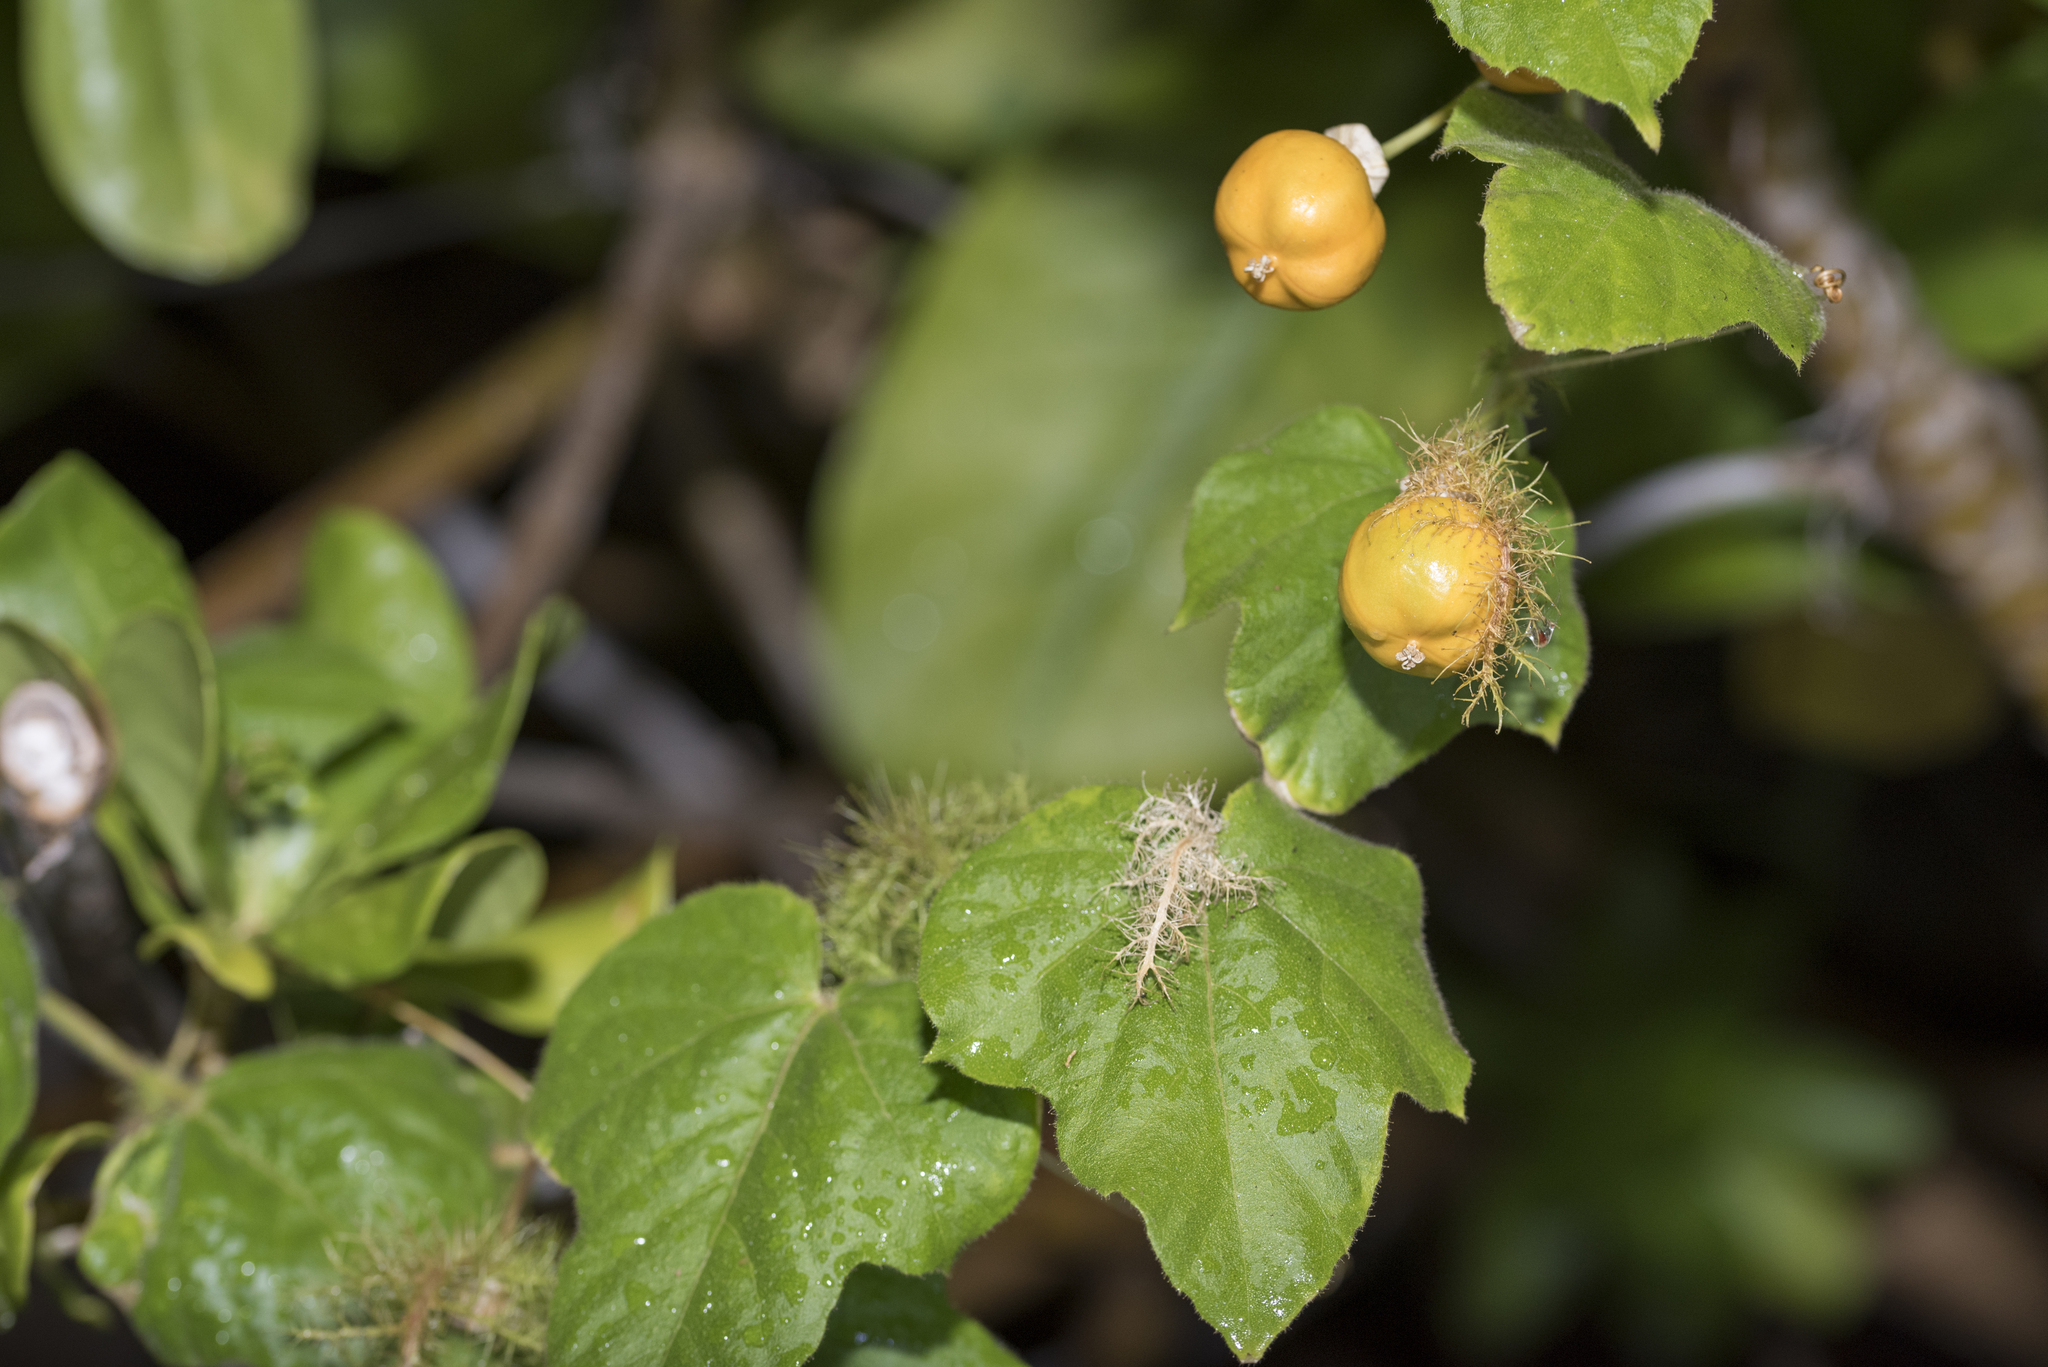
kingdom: Plantae
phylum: Tracheophyta
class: Magnoliopsida
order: Malpighiales
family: Passifloraceae
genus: Passiflora
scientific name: Passiflora vesicaria
